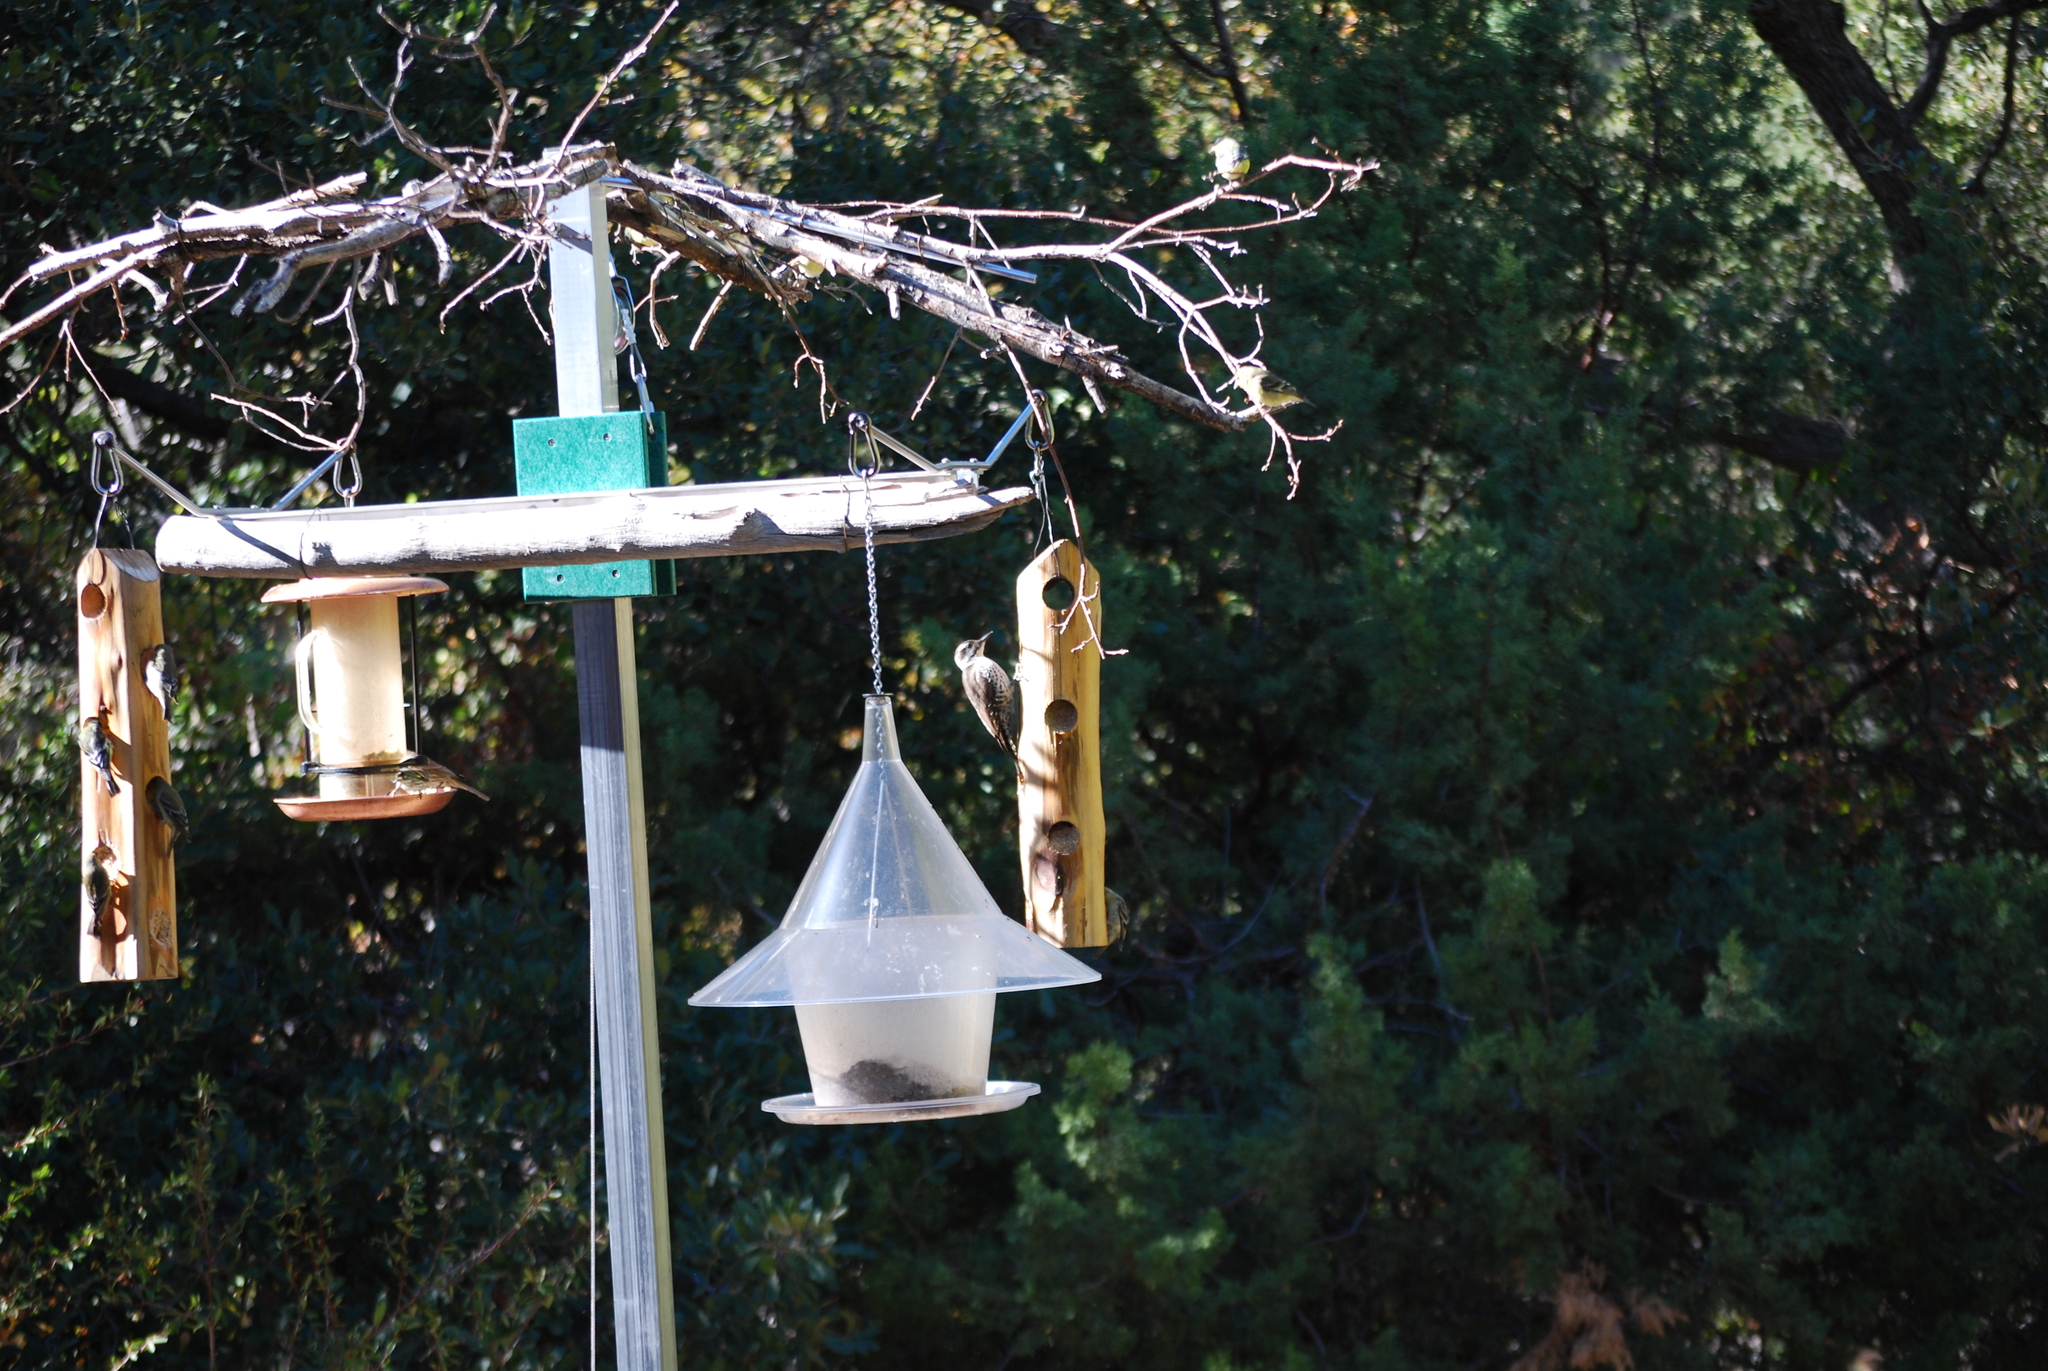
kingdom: Animalia
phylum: Chordata
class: Aves
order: Piciformes
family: Picidae
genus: Leuconotopicus
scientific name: Leuconotopicus arizonae
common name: Arizona woodpecker
